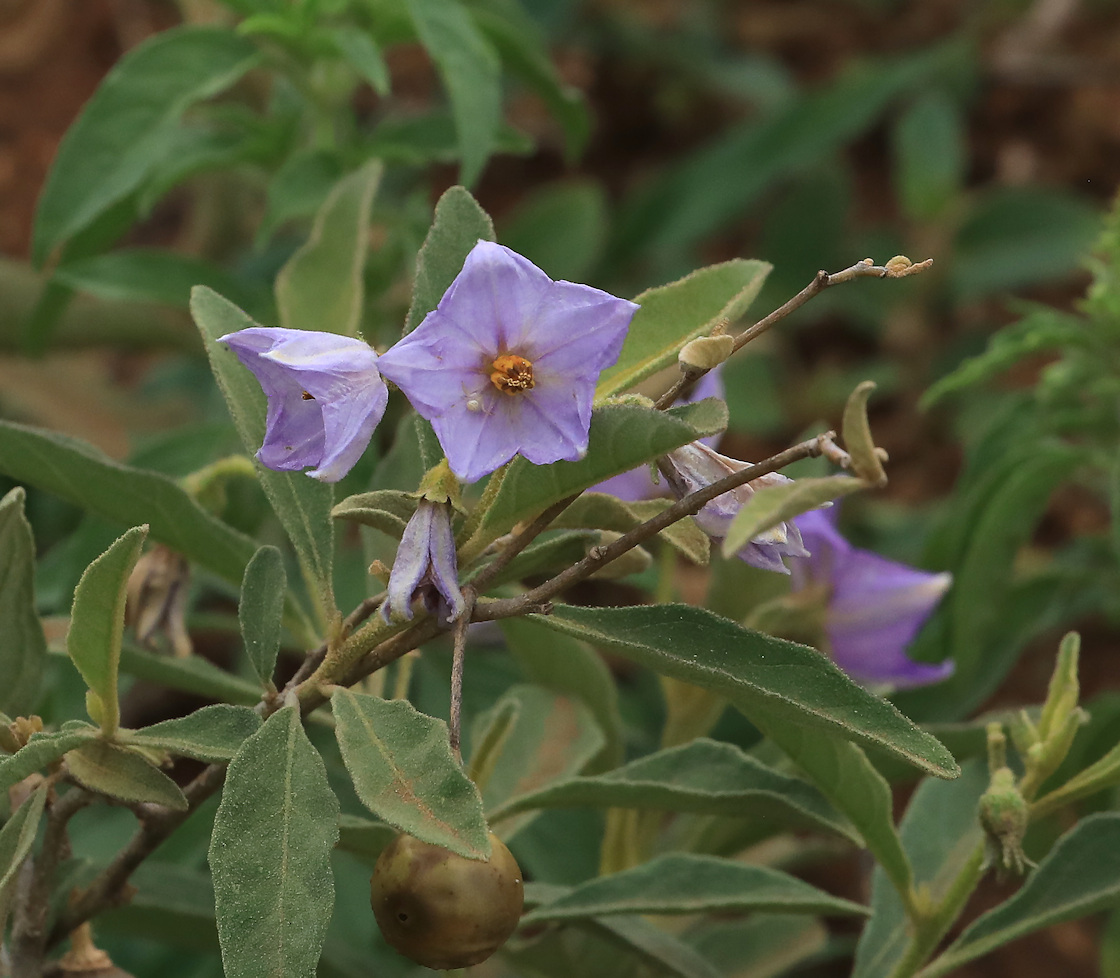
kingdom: Plantae
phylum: Tracheophyta
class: Magnoliopsida
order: Solanales
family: Solanaceae
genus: Solanum
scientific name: Solanum campylacanthum
